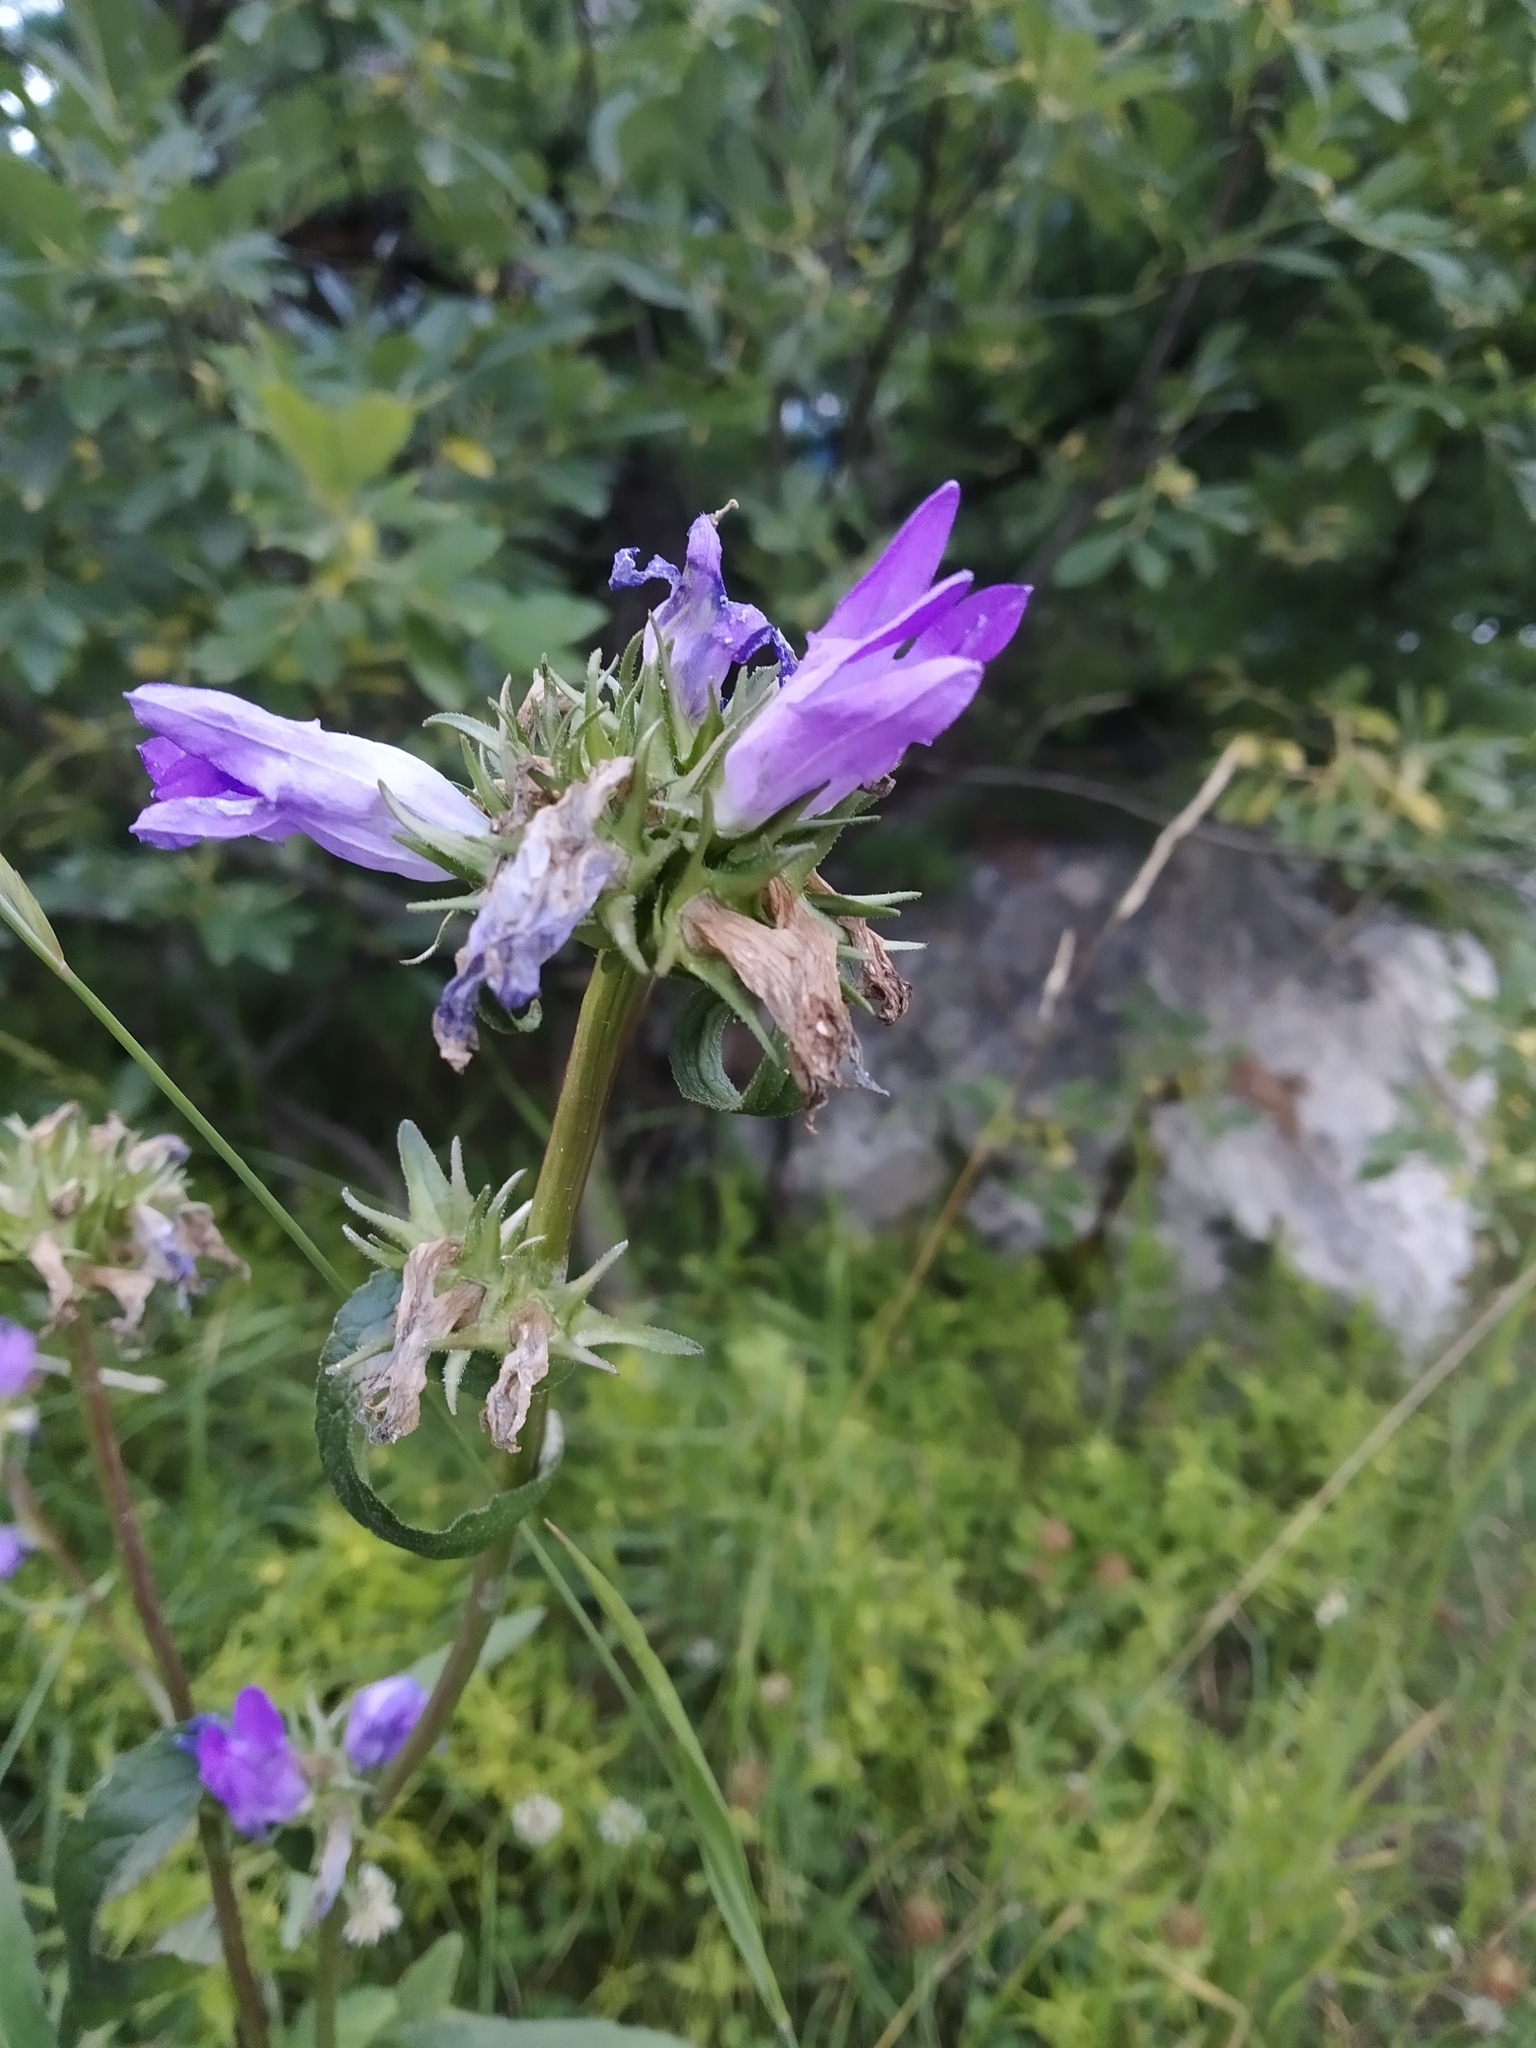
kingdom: Plantae
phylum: Tracheophyta
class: Magnoliopsida
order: Asterales
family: Campanulaceae
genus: Campanula
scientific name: Campanula glomerata
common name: Clustered bellflower
